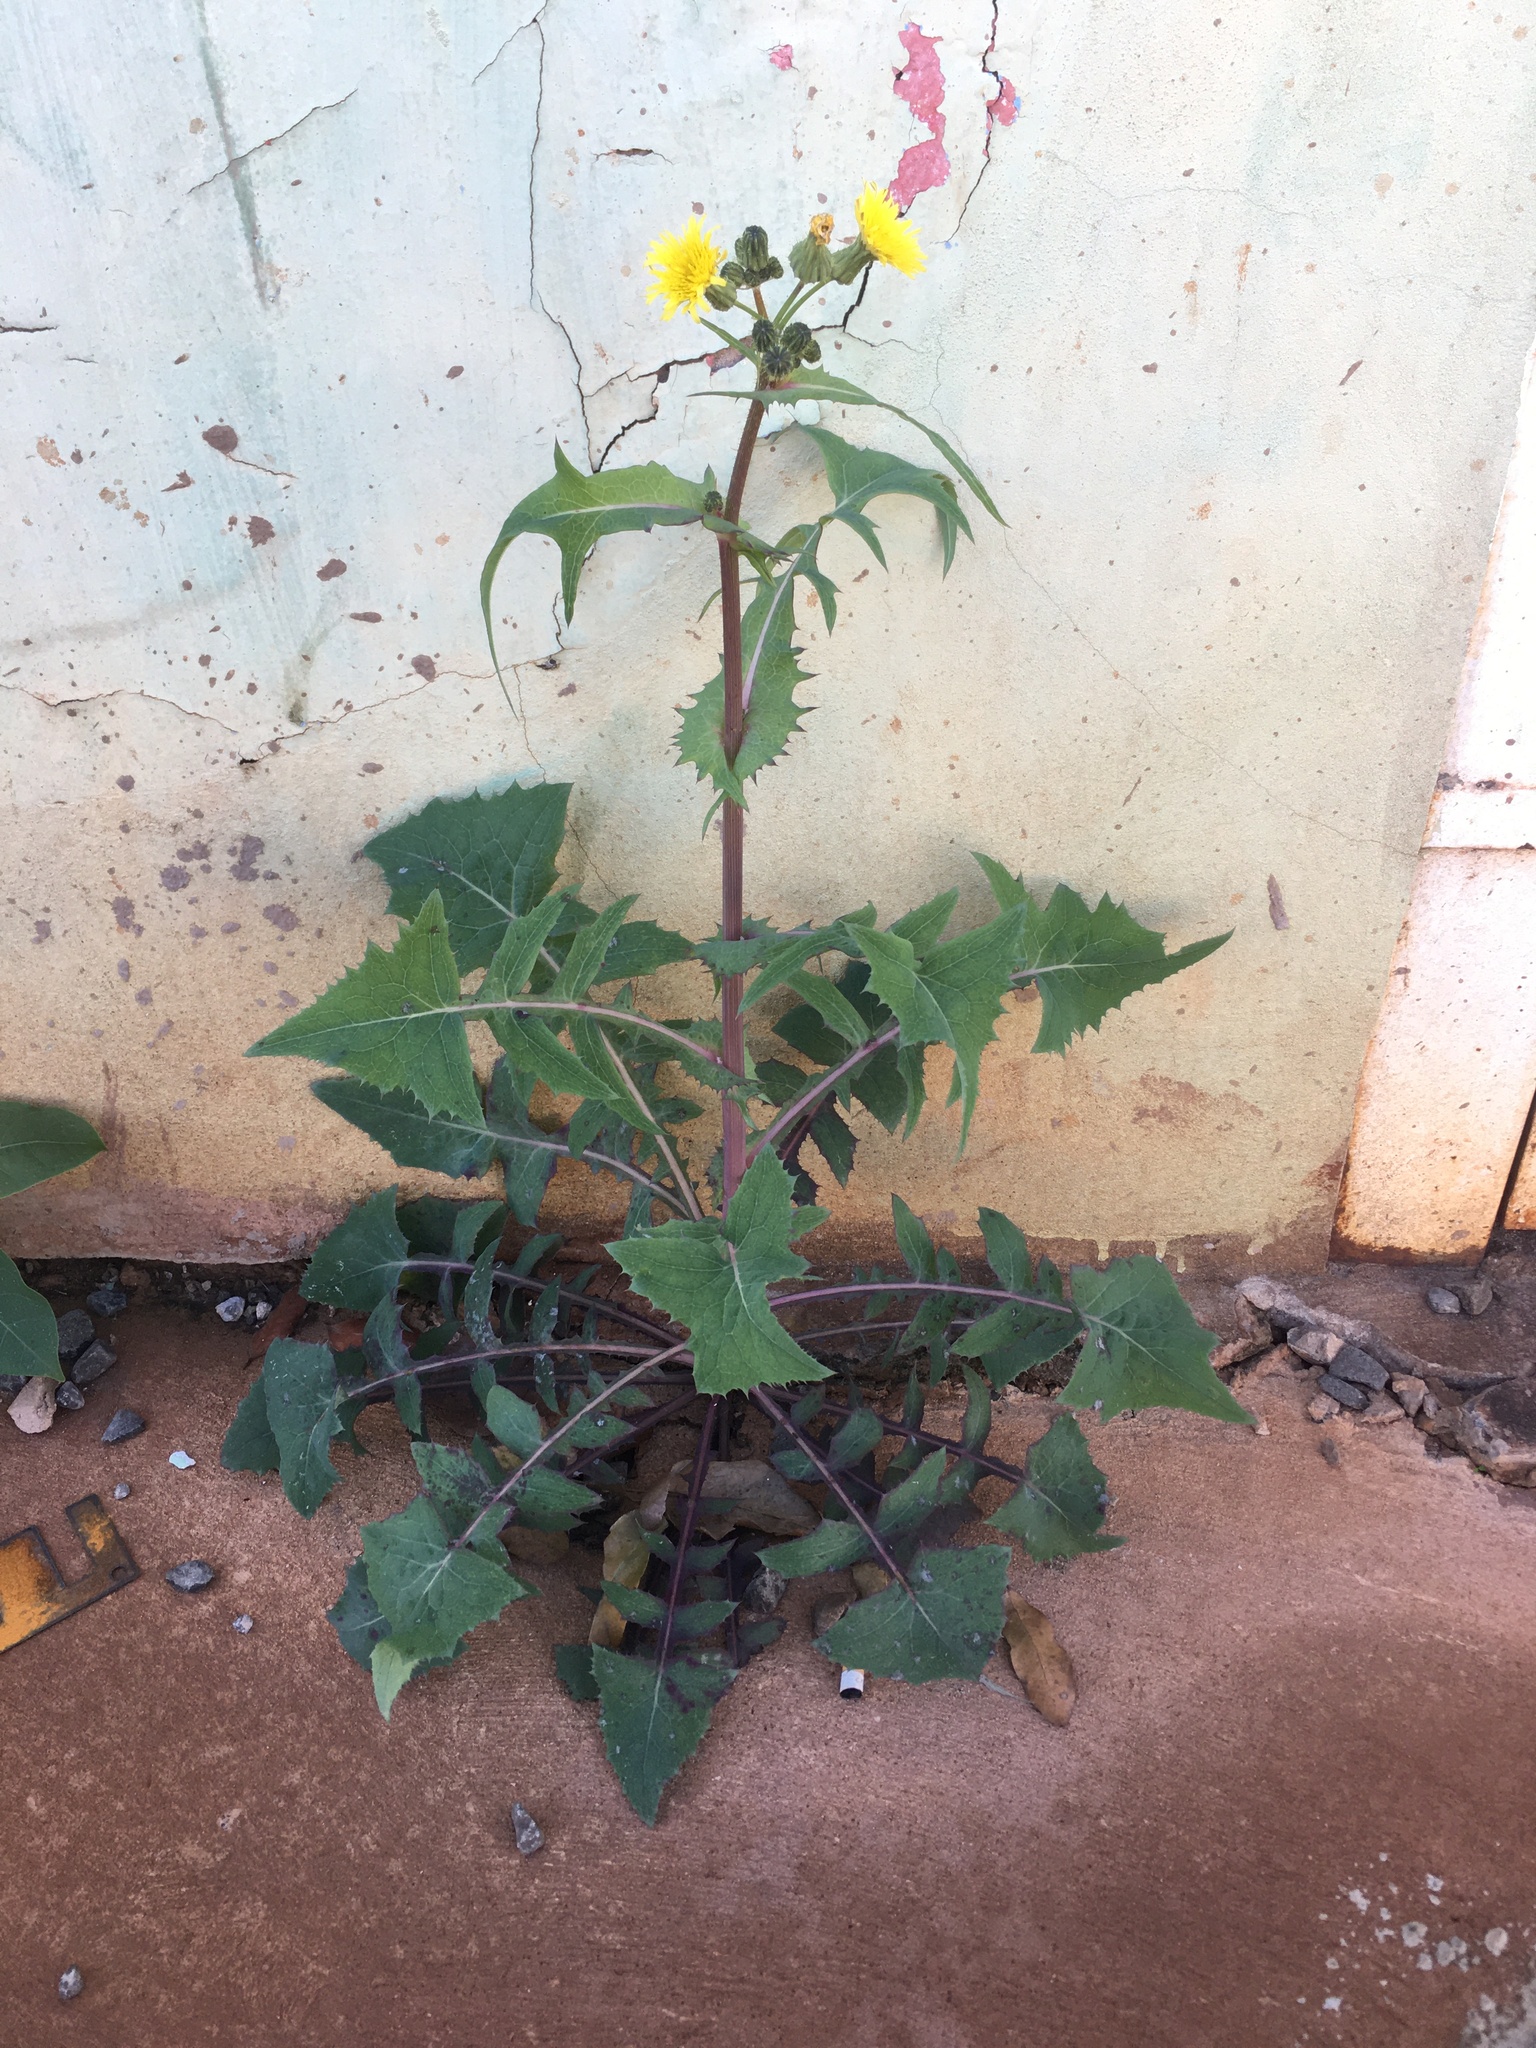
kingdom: Plantae
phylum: Tracheophyta
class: Magnoliopsida
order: Asterales
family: Asteraceae
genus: Sonchus
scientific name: Sonchus oleraceus
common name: Common sowthistle
